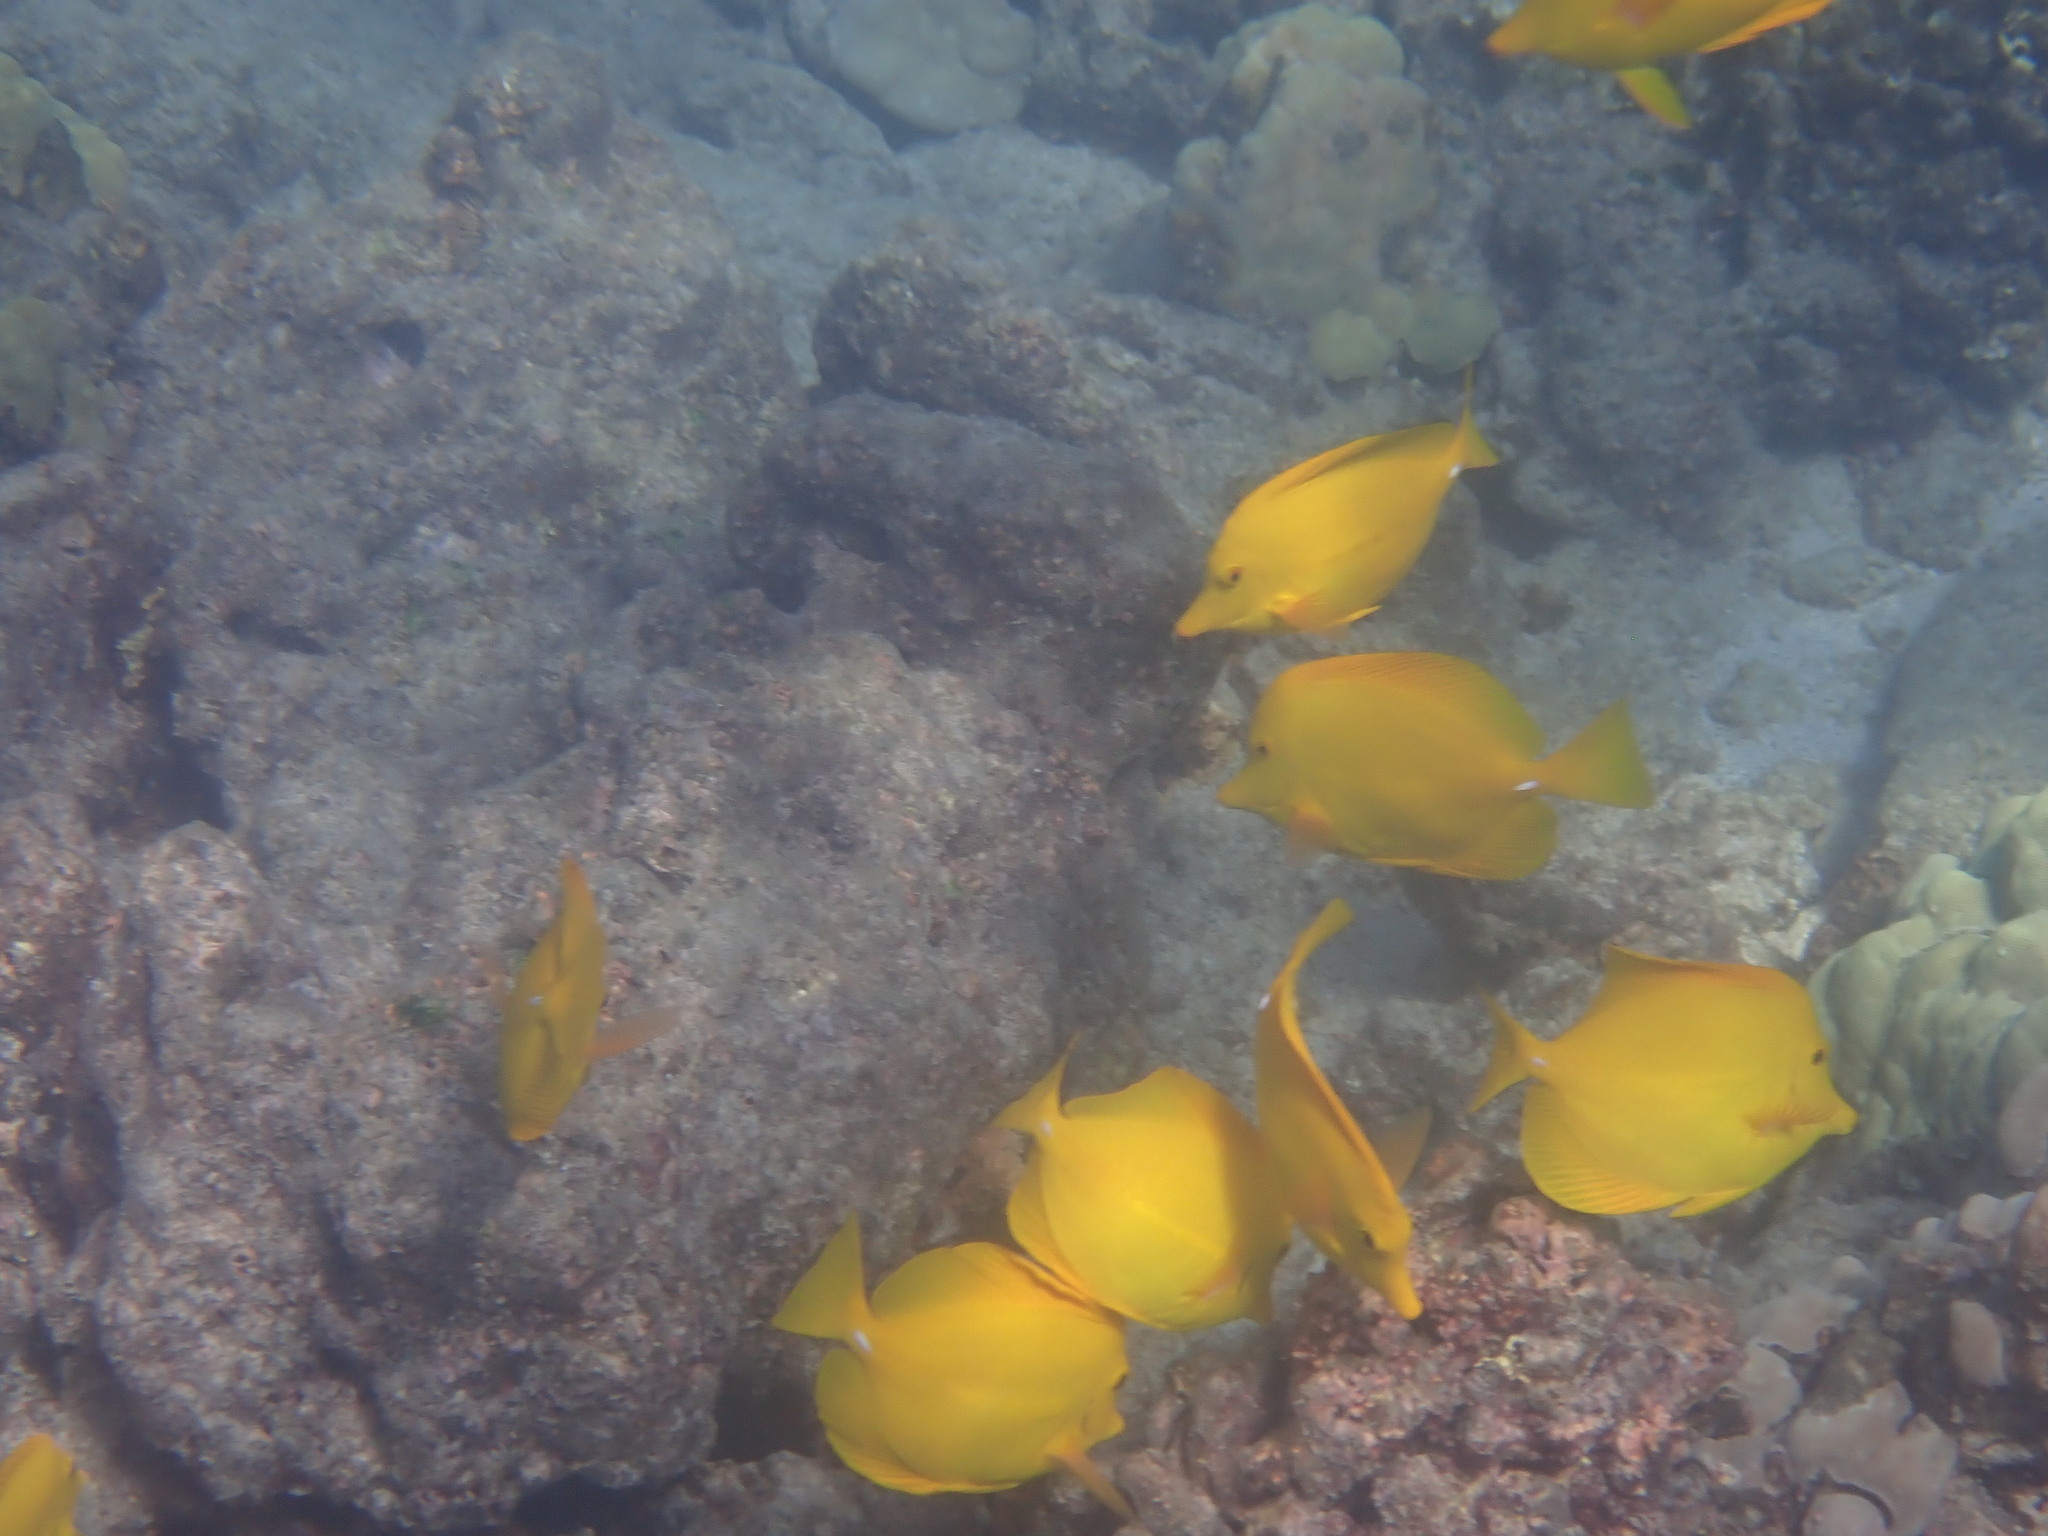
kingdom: Animalia
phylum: Chordata
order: Perciformes
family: Acanthuridae
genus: Zebrasoma
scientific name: Zebrasoma flavescens
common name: Yellow tang
